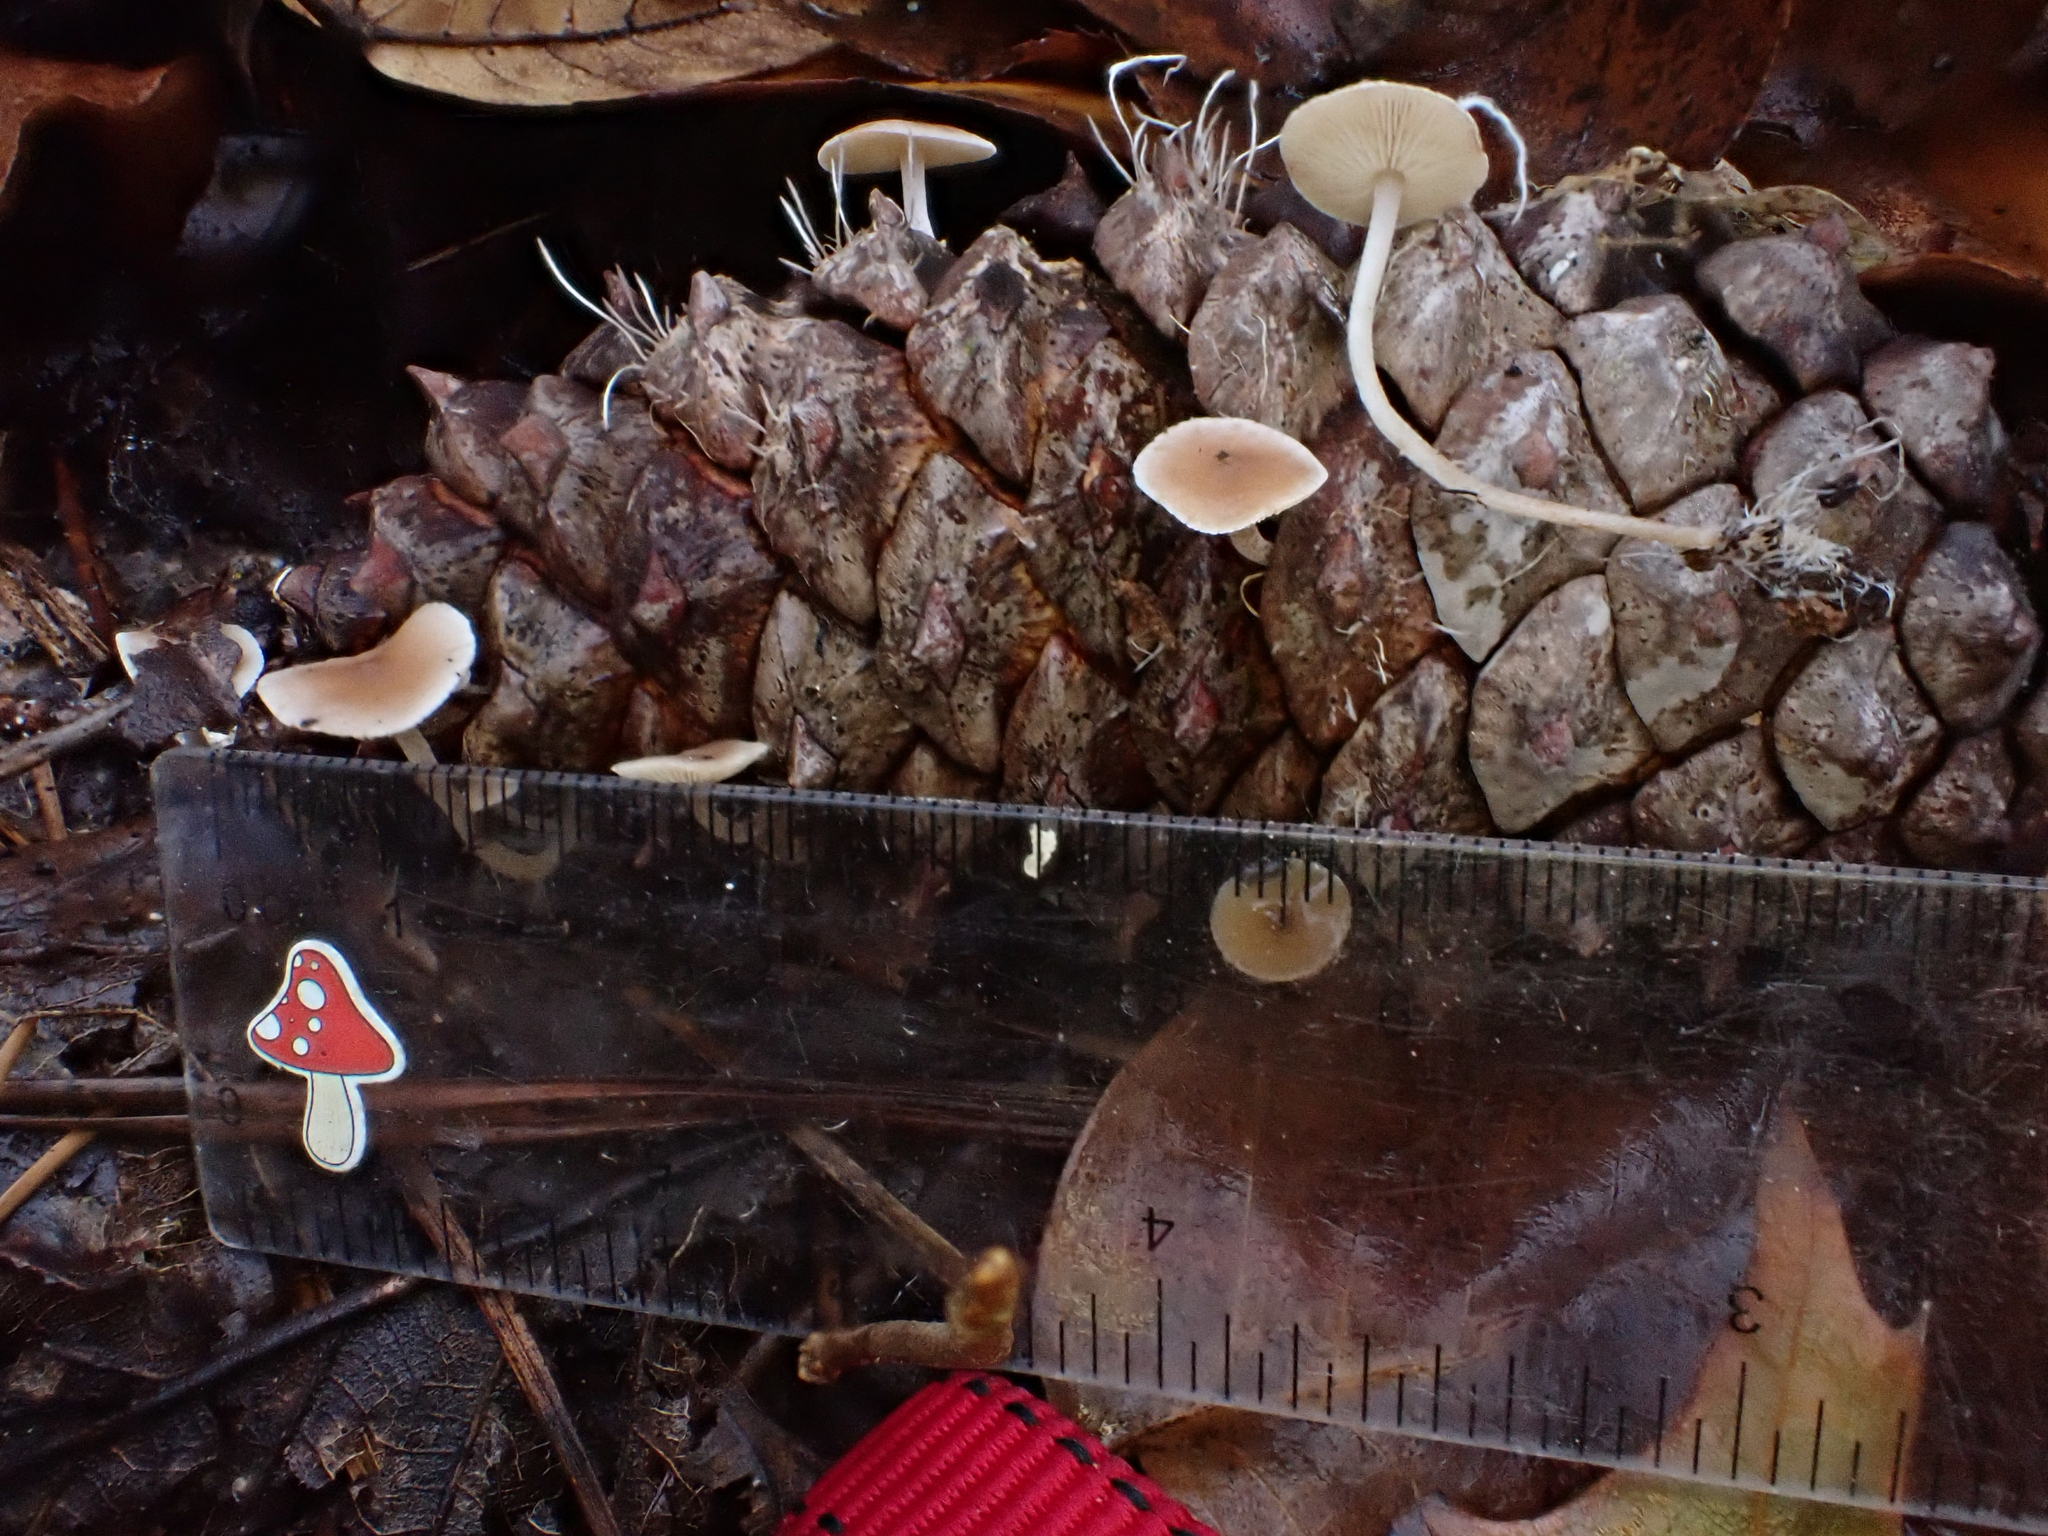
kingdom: Fungi
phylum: Basidiomycota
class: Agaricomycetes
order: Agaricales
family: Marasmiaceae
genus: Baeospora
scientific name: Baeospora myosura
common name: Conifercone cap
